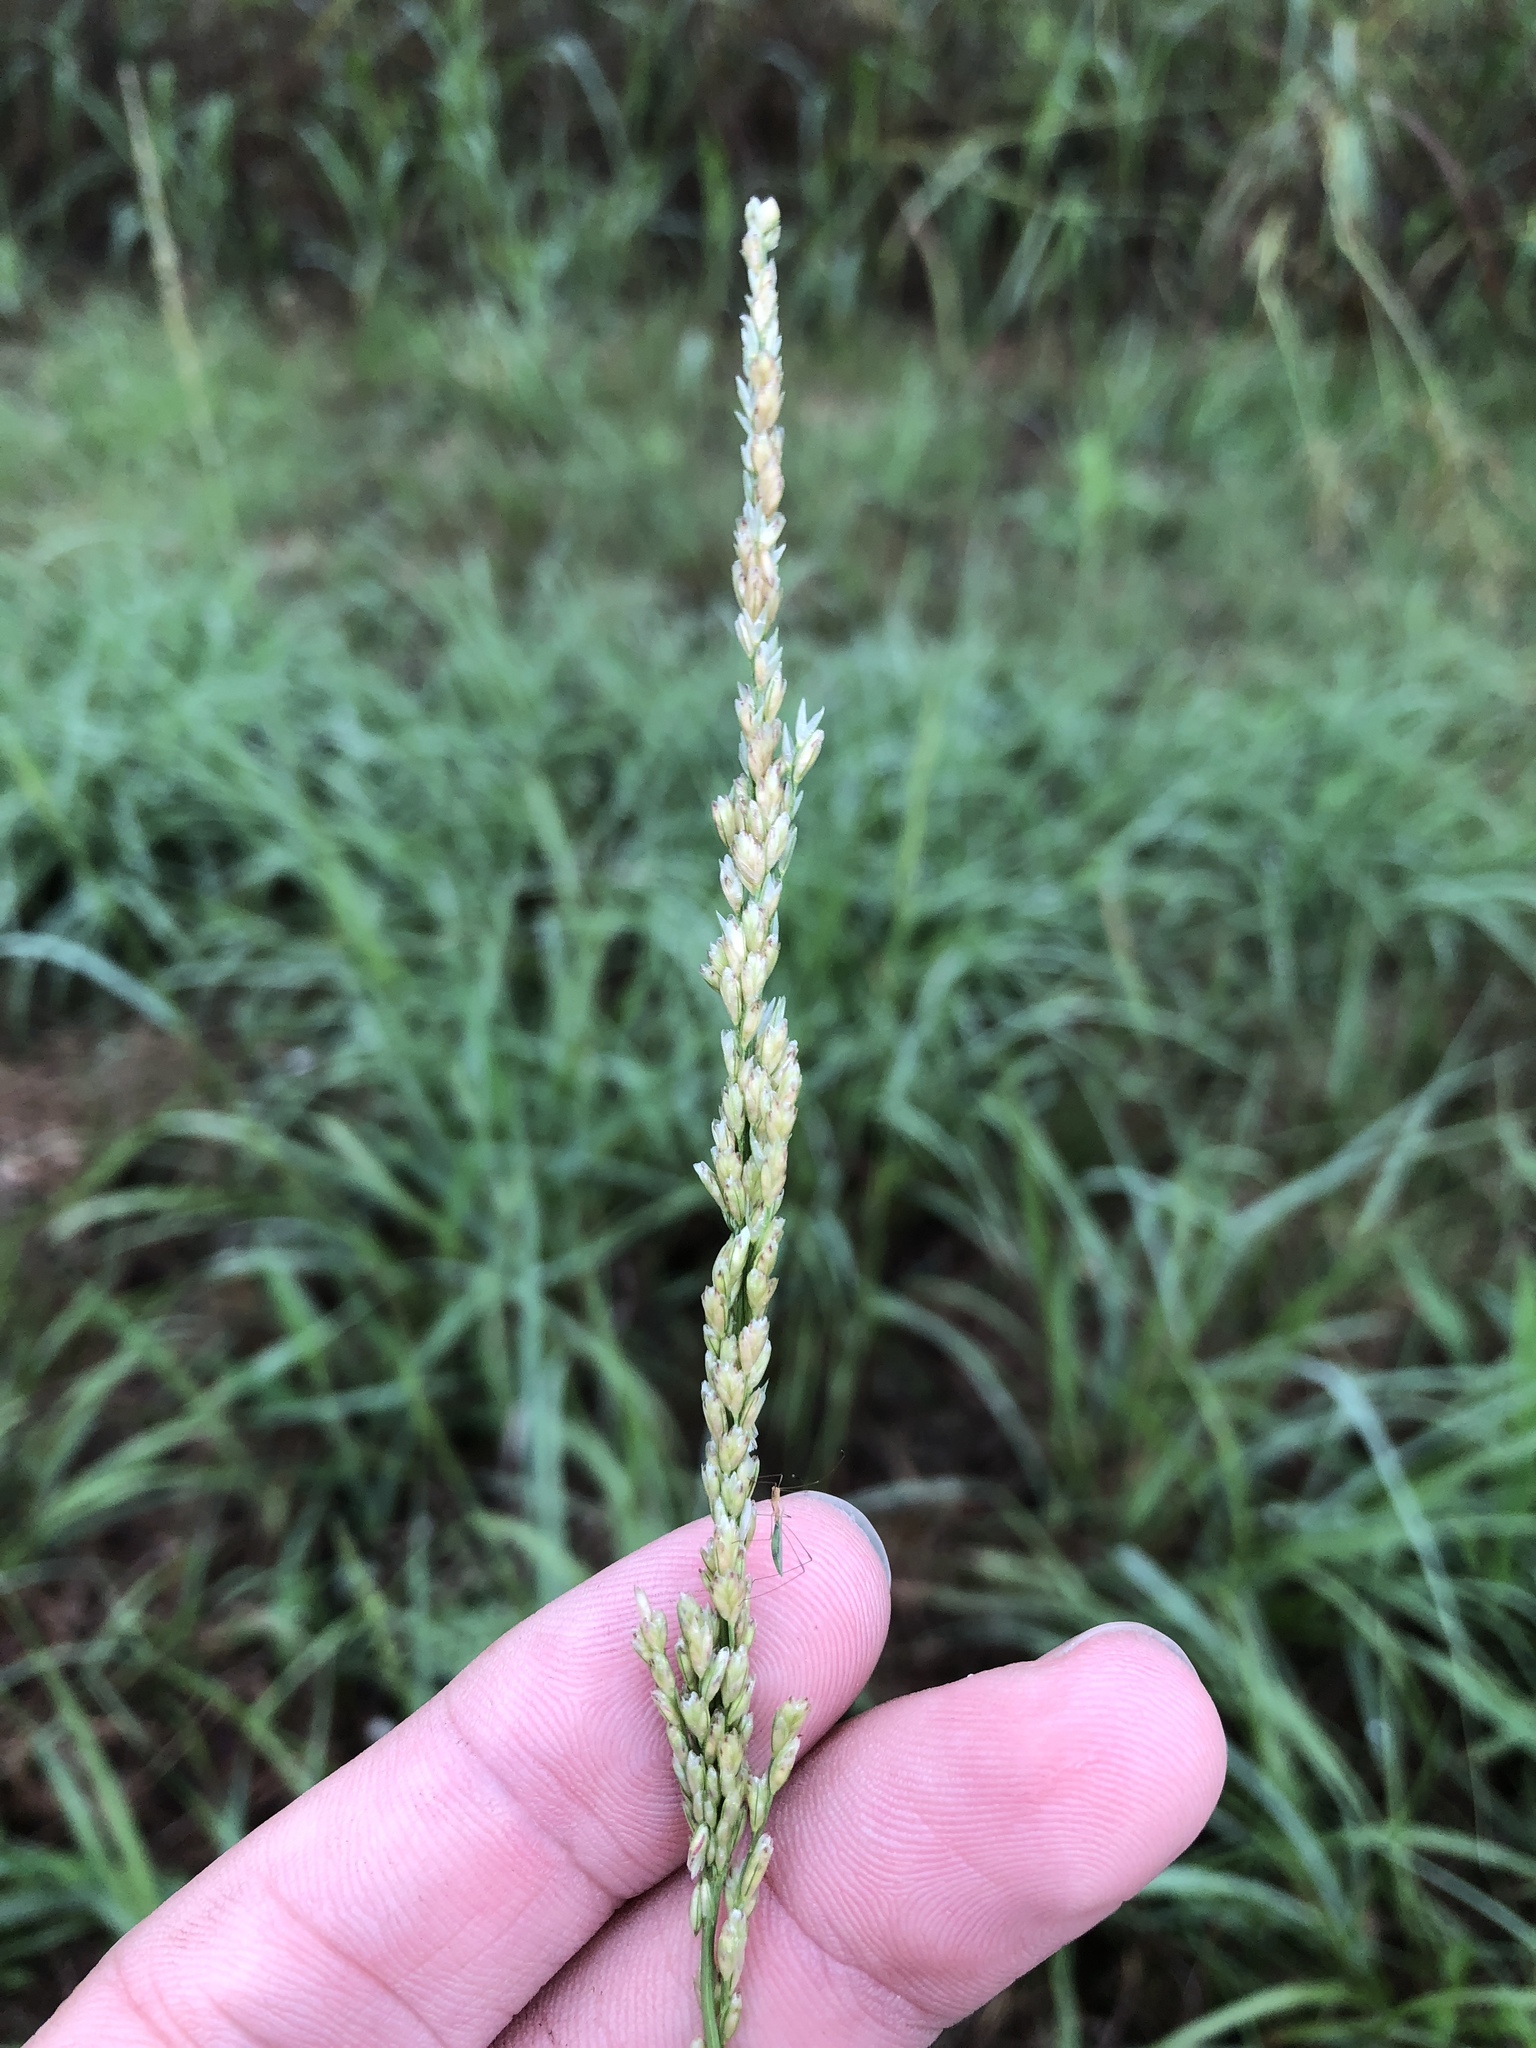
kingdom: Plantae
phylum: Tracheophyta
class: Liliopsida
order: Poales
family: Poaceae
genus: Tridens
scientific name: Tridens albescens
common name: White tridens
